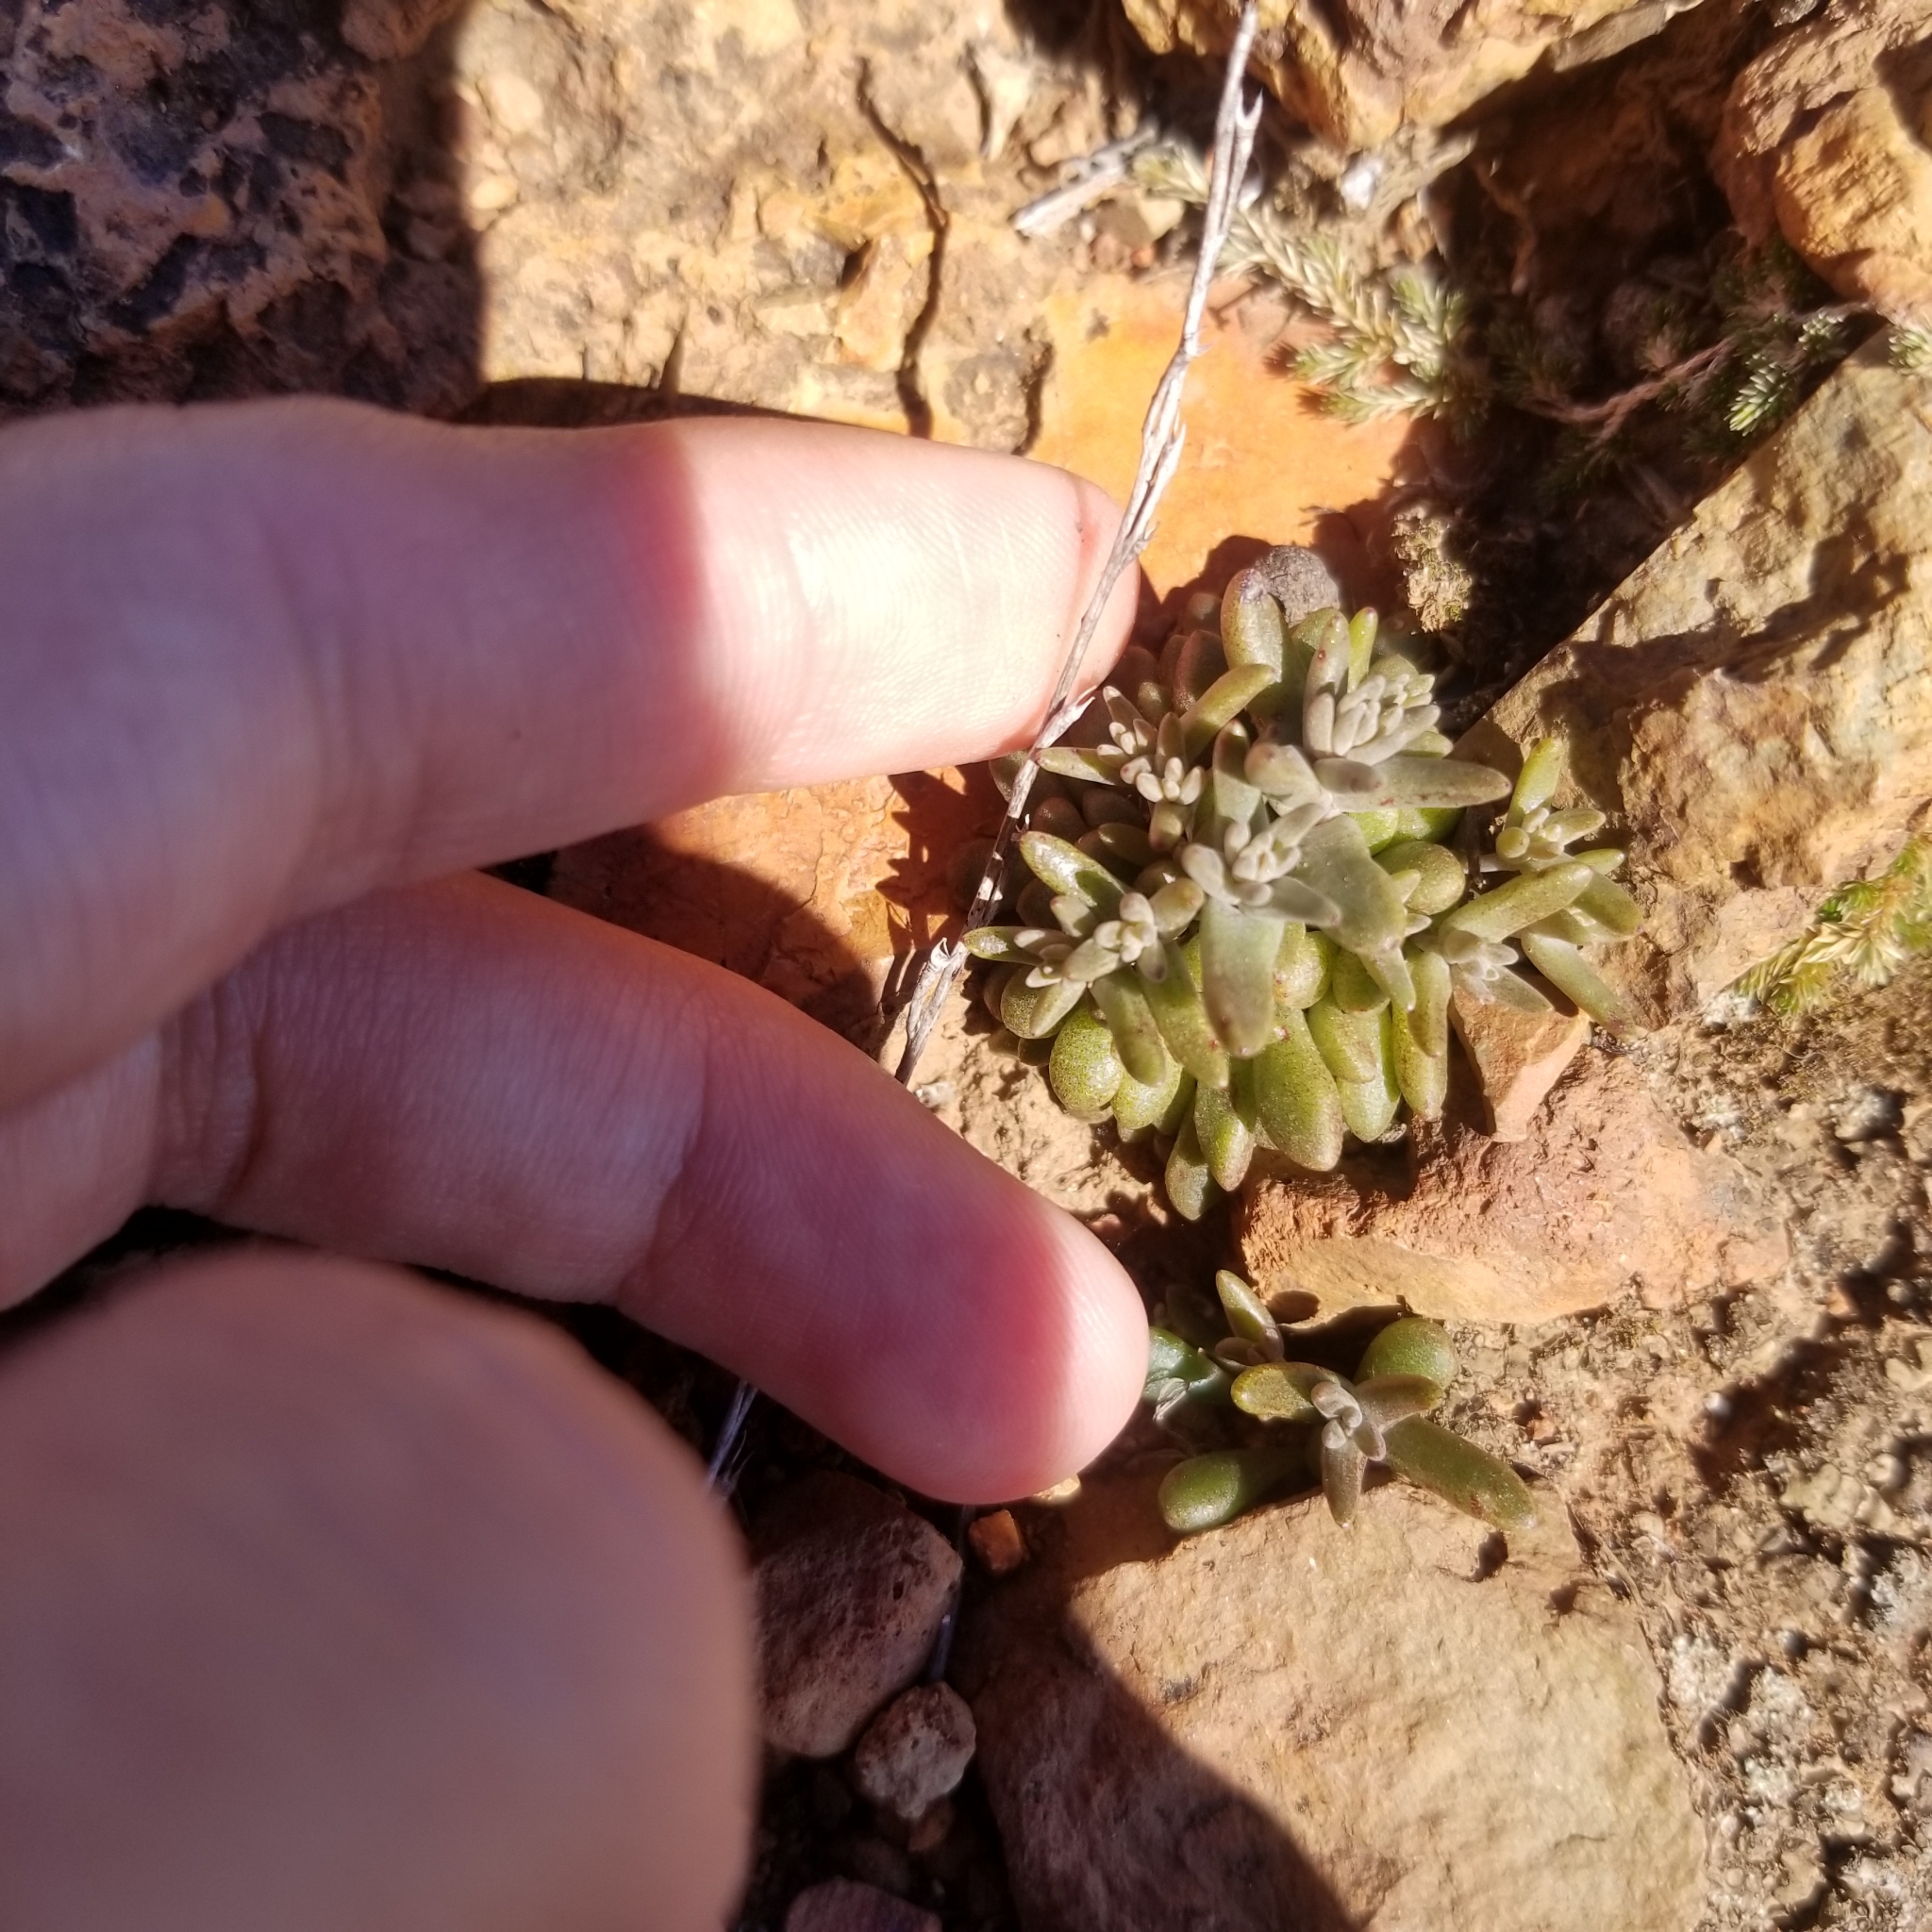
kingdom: Plantae
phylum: Tracheophyta
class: Magnoliopsida
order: Saxifragales
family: Crassulaceae
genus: Dudleya
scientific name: Dudleya variegata
